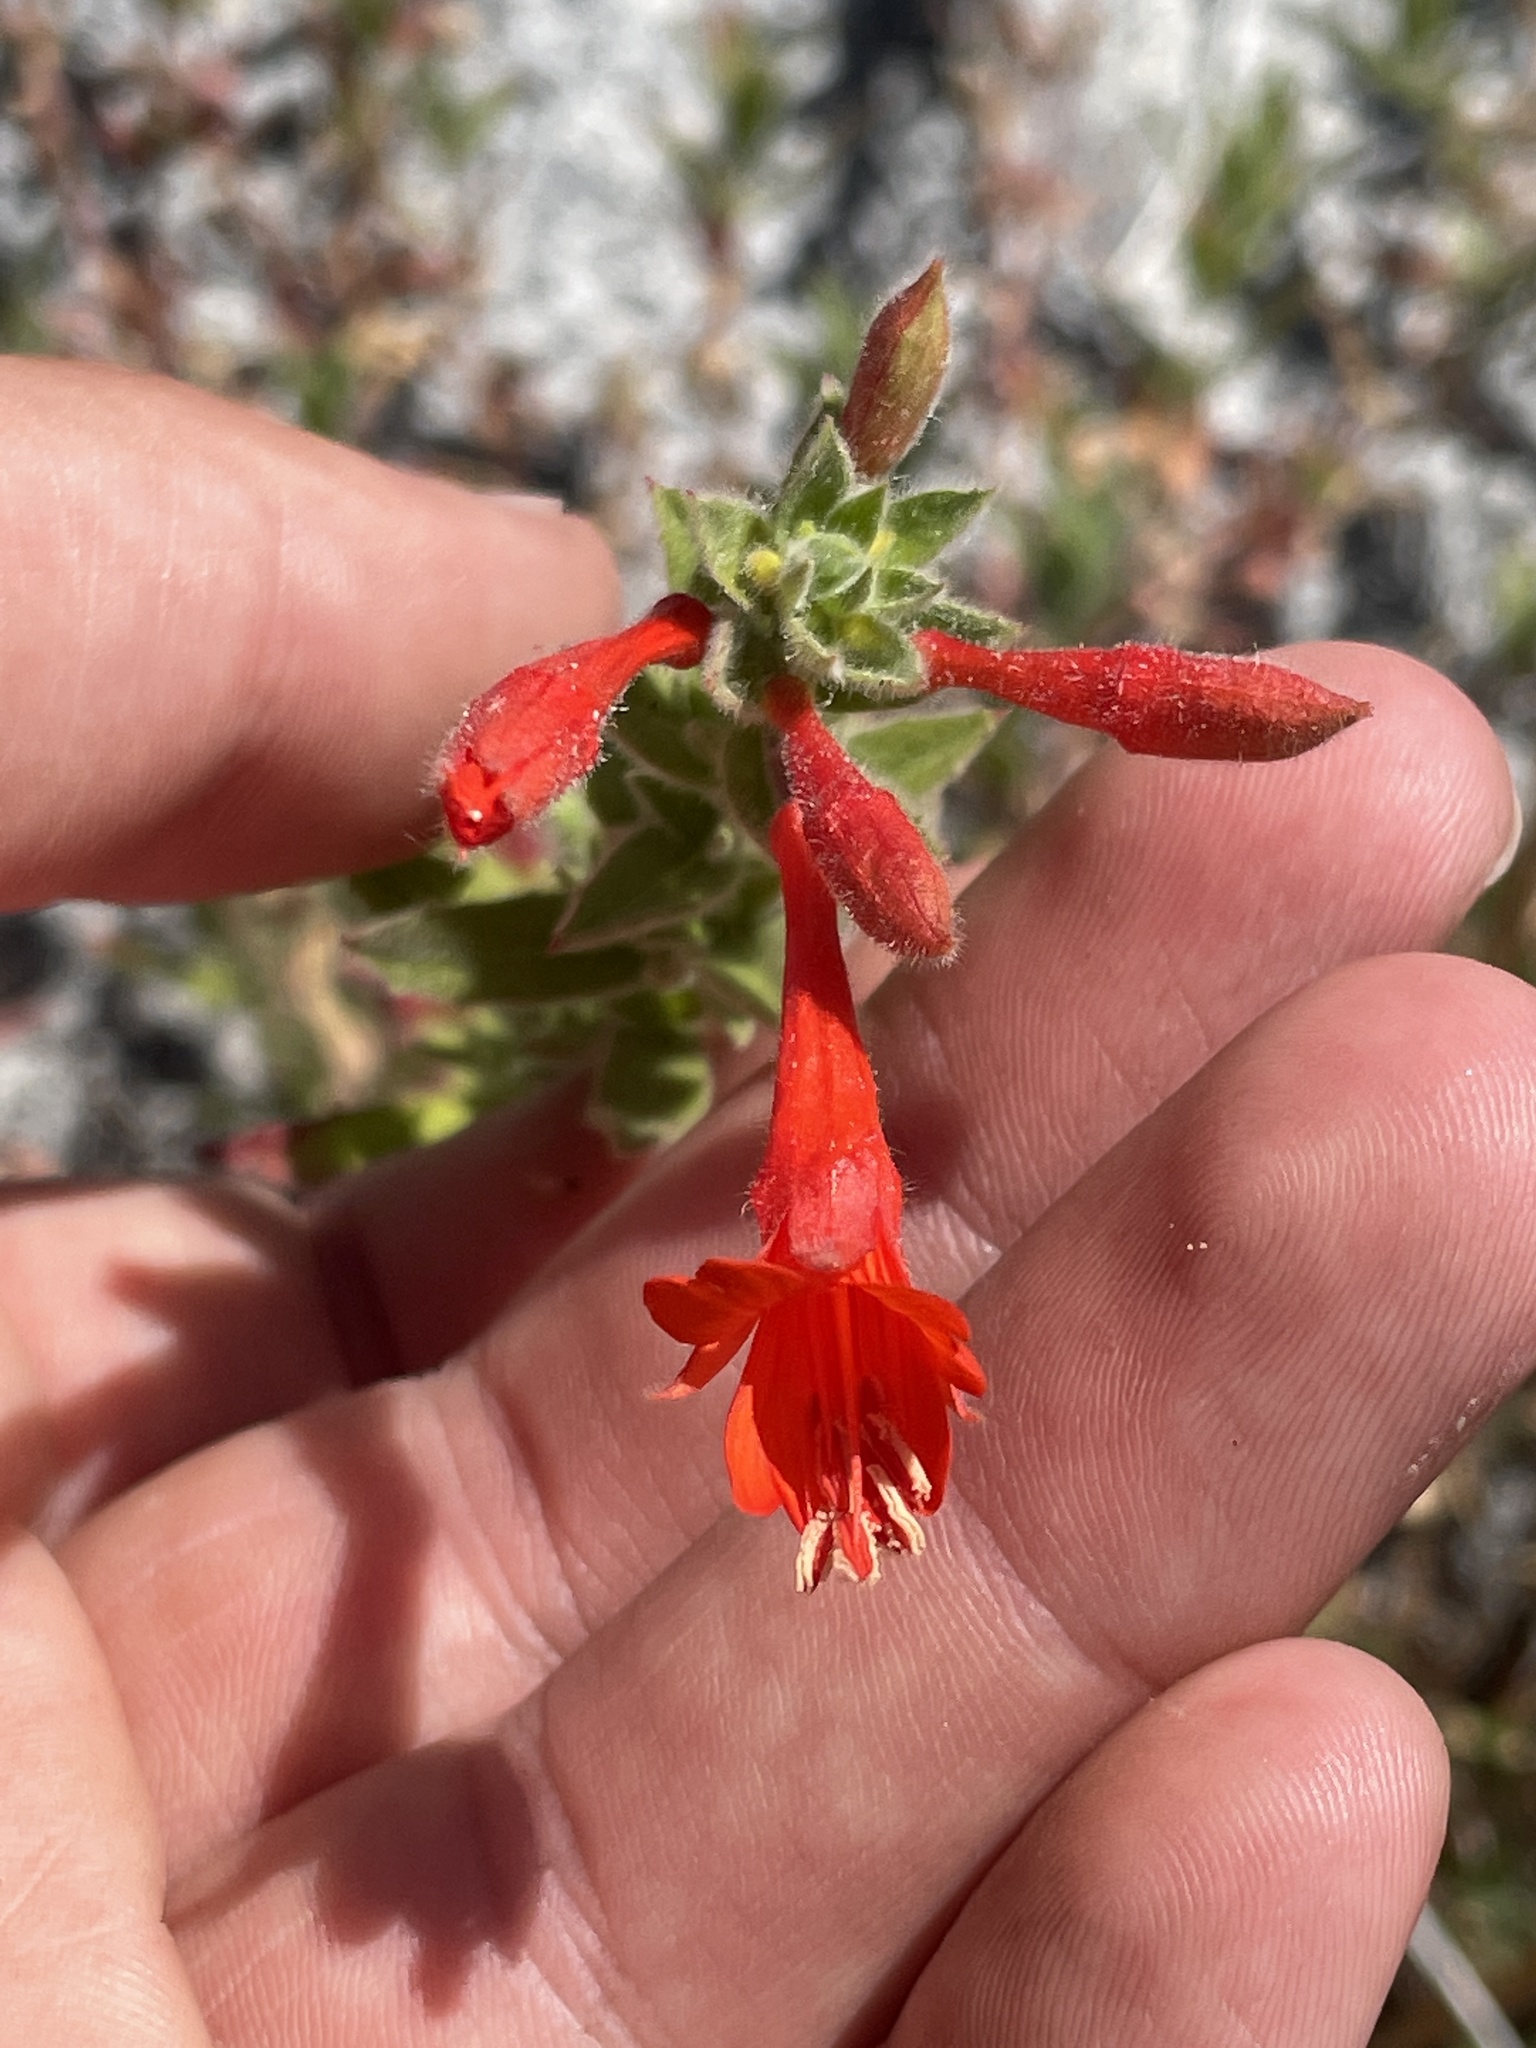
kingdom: Plantae
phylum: Tracheophyta
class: Magnoliopsida
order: Myrtales
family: Onagraceae
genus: Epilobium
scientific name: Epilobium canum
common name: California-fuchsia
